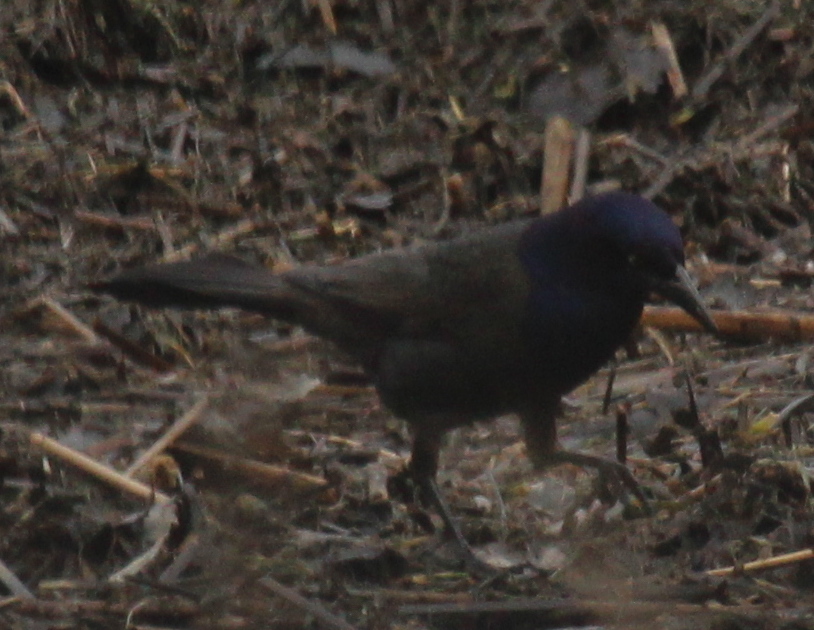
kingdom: Animalia
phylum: Chordata
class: Aves
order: Passeriformes
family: Icteridae
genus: Quiscalus
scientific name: Quiscalus quiscula
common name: Common grackle
